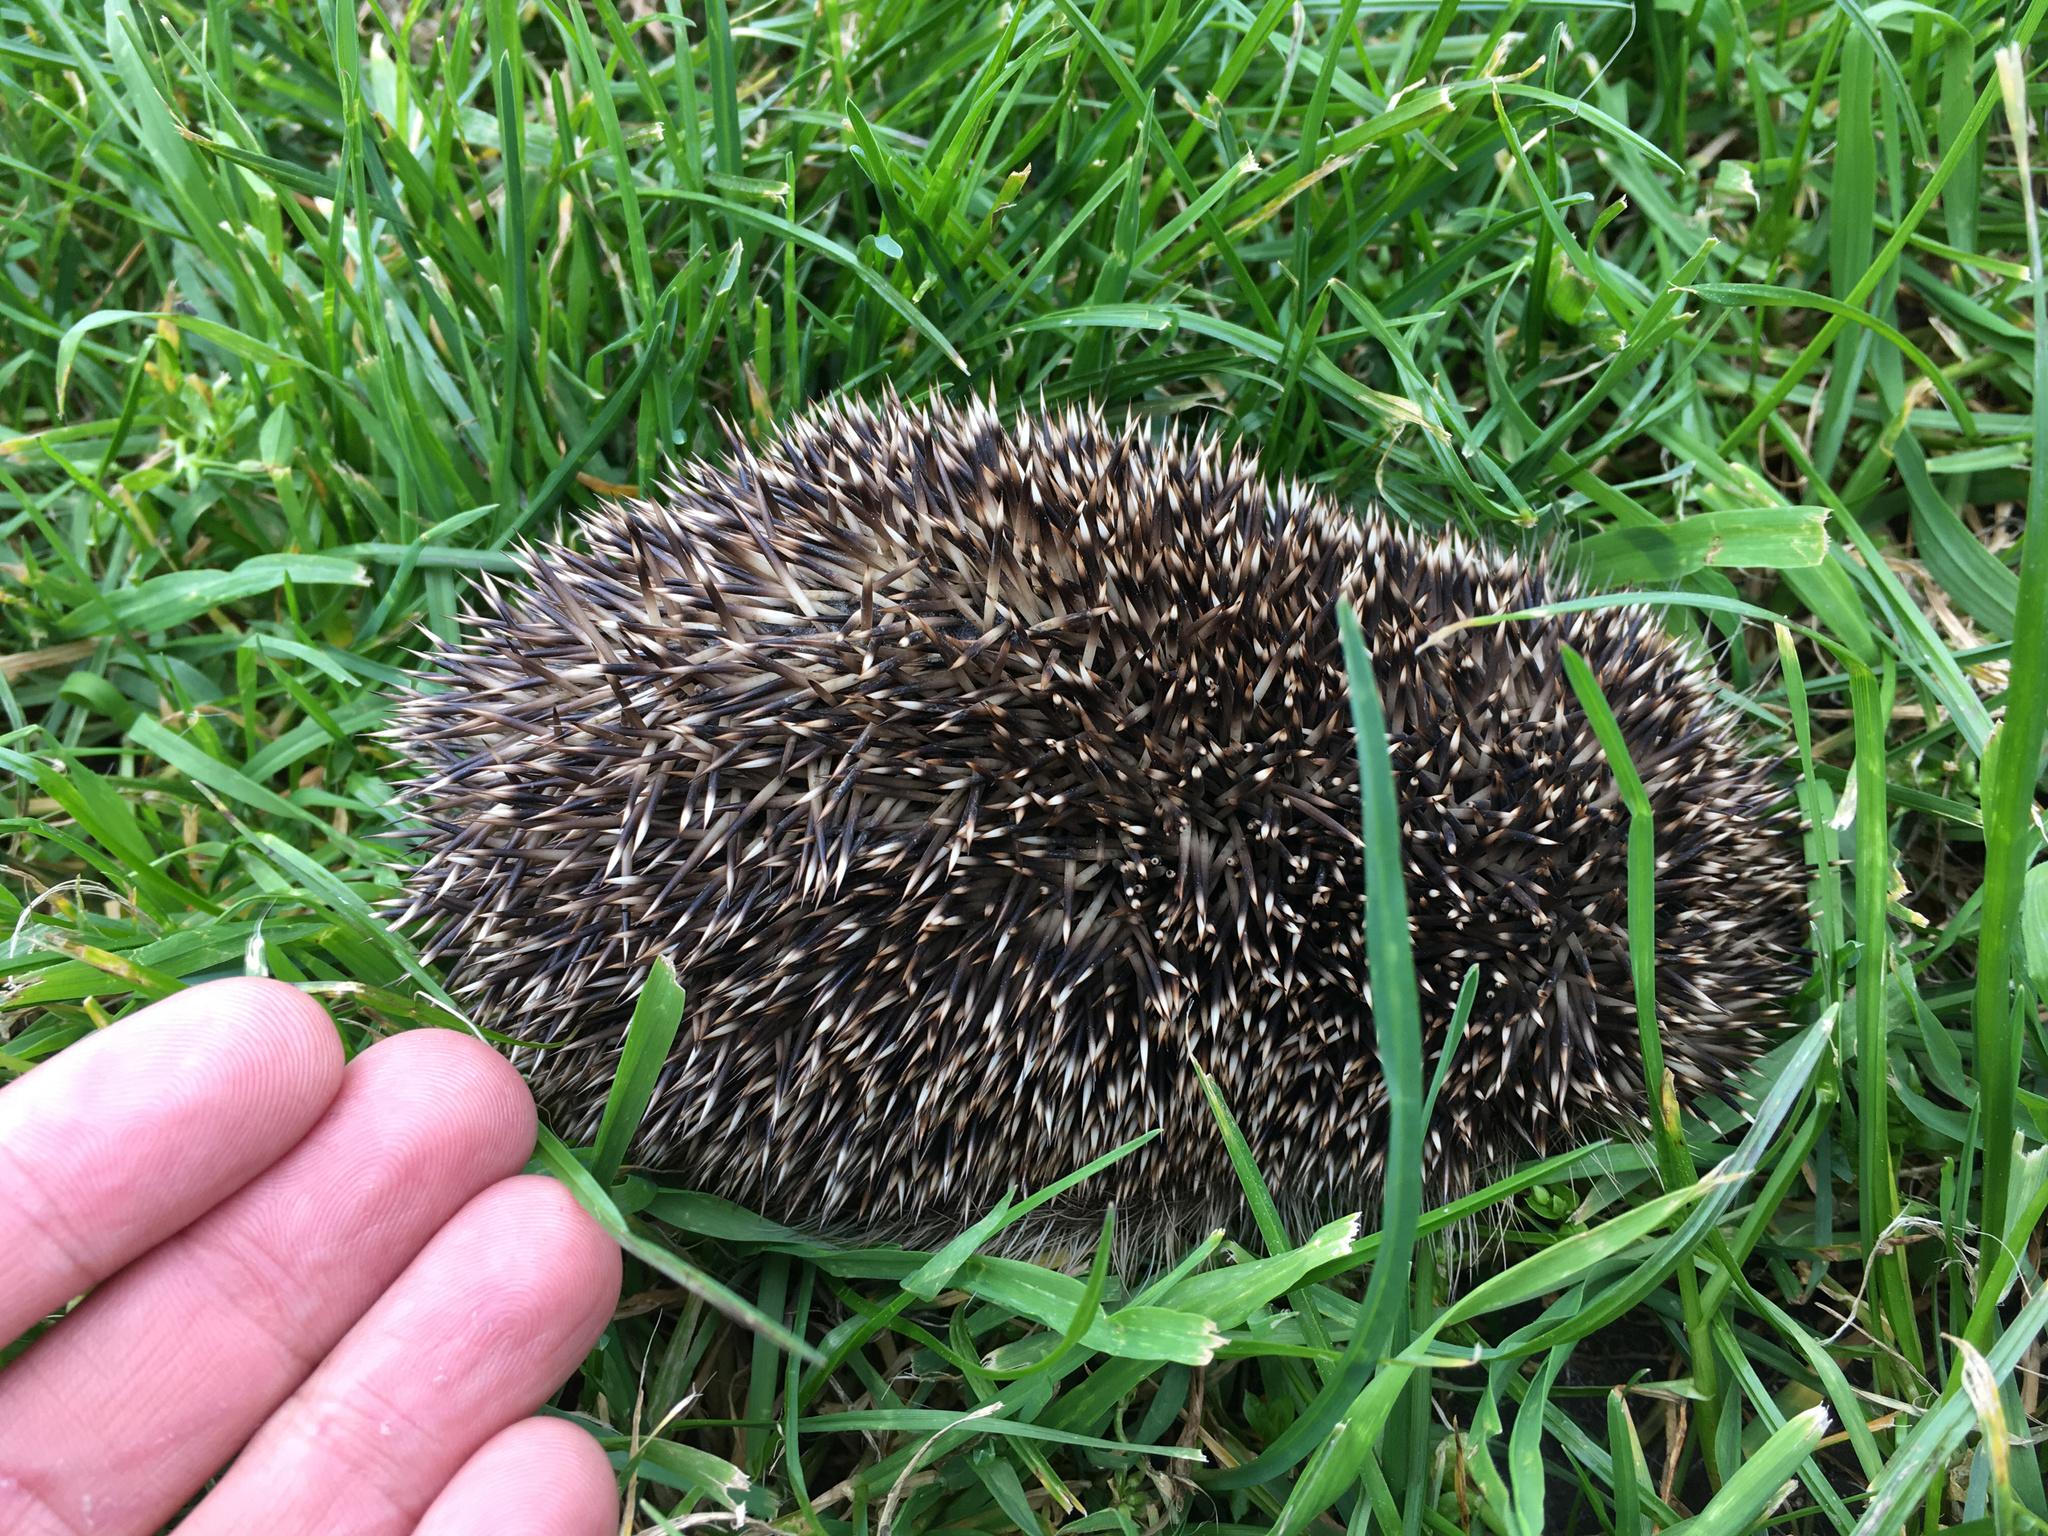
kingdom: Animalia
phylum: Chordata
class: Mammalia
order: Erinaceomorpha
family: Erinaceidae
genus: Erinaceus
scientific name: Erinaceus europaeus
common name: West european hedgehog
